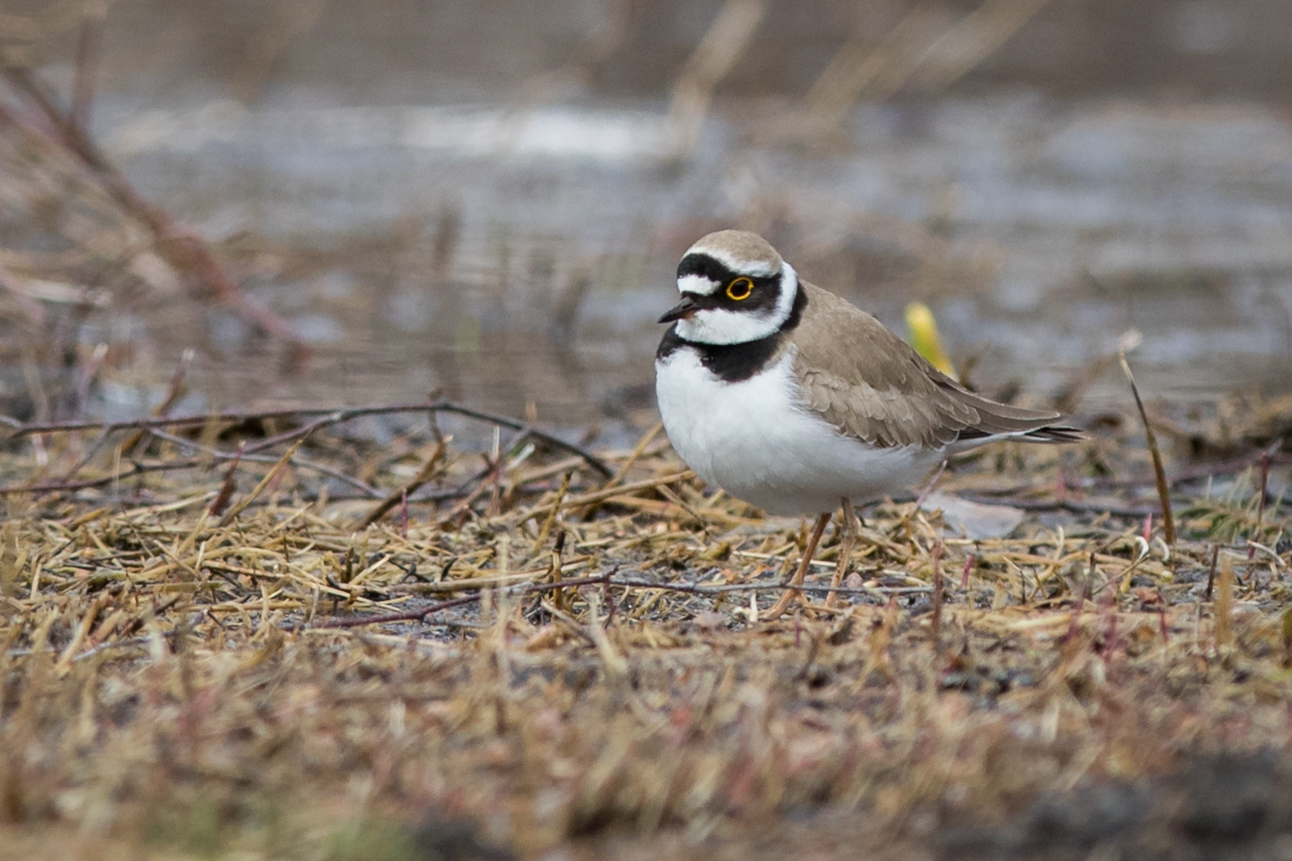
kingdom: Animalia
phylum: Chordata
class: Aves
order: Charadriiformes
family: Charadriidae
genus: Charadrius
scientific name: Charadrius dubius
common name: Little ringed plover
